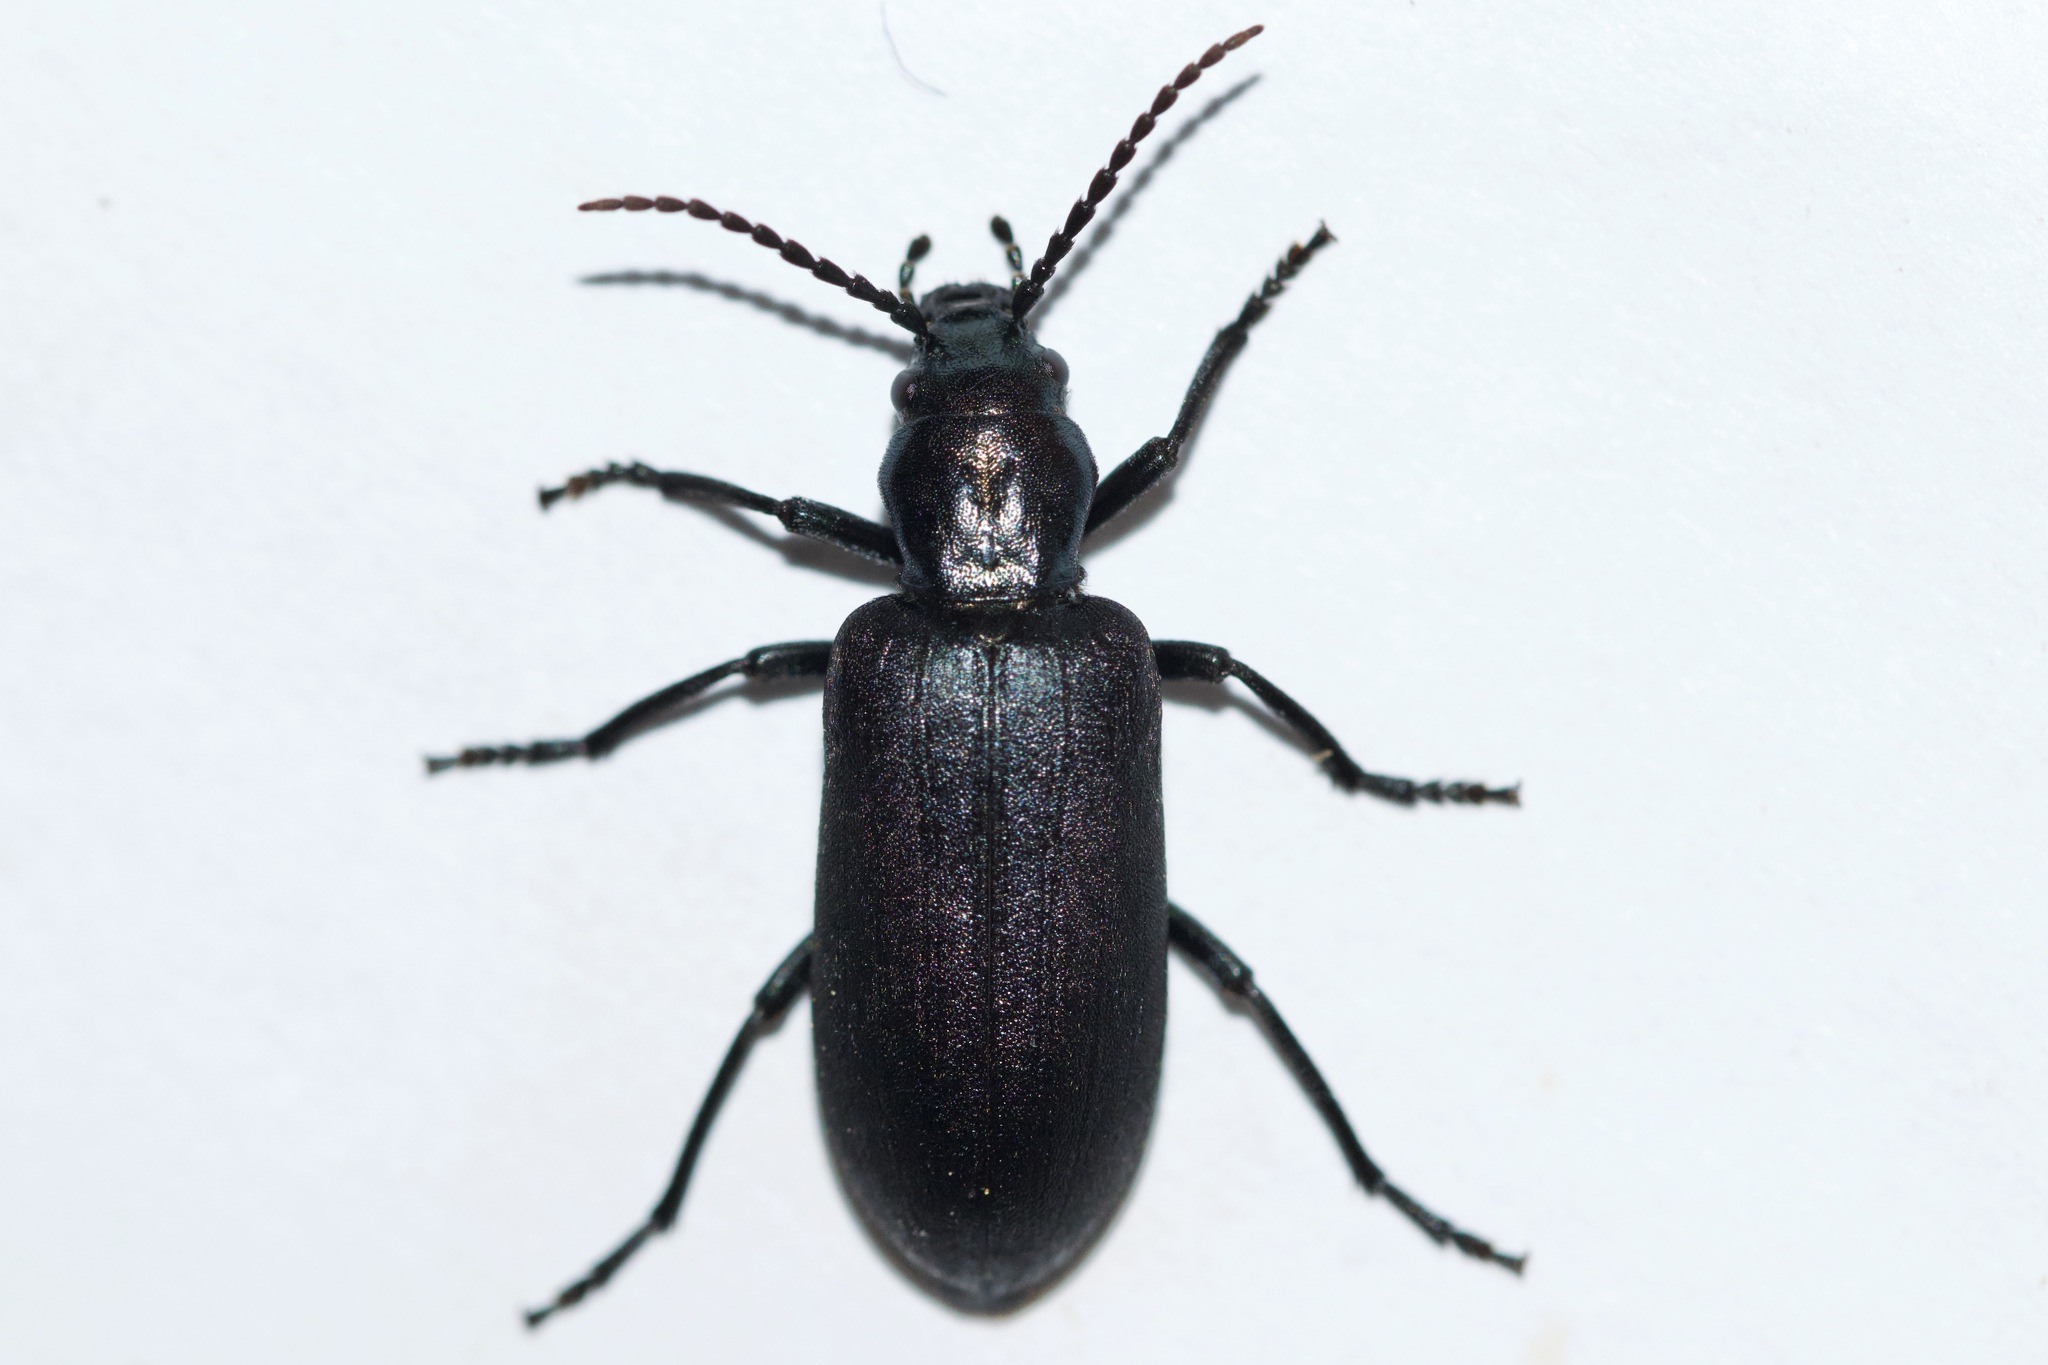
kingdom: Animalia
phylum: Arthropoda
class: Insecta
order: Coleoptera
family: Oedemeridae
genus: Ditylus
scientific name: Ditylus caeruleus
